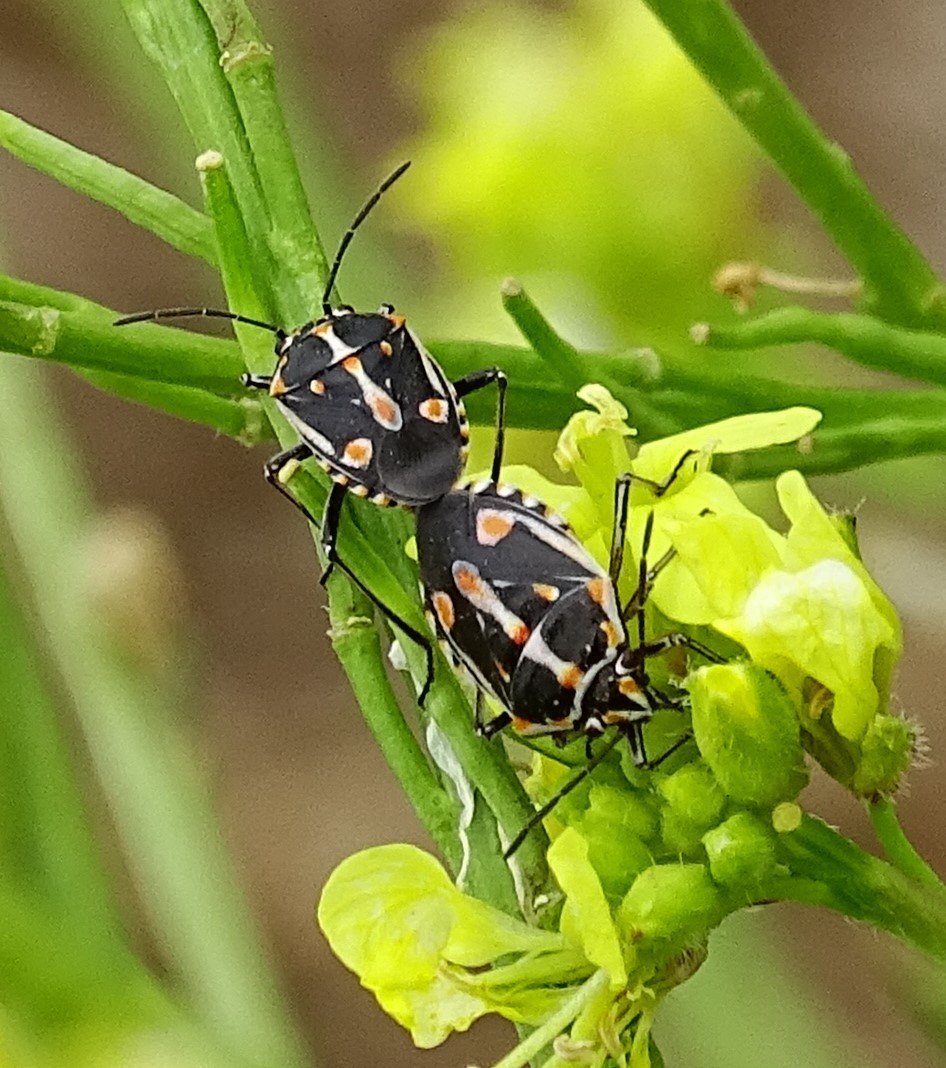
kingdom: Animalia
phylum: Arthropoda
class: Insecta
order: Hemiptera
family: Pentatomidae
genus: Bagrada
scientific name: Bagrada hilaris
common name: Bagrada bug
